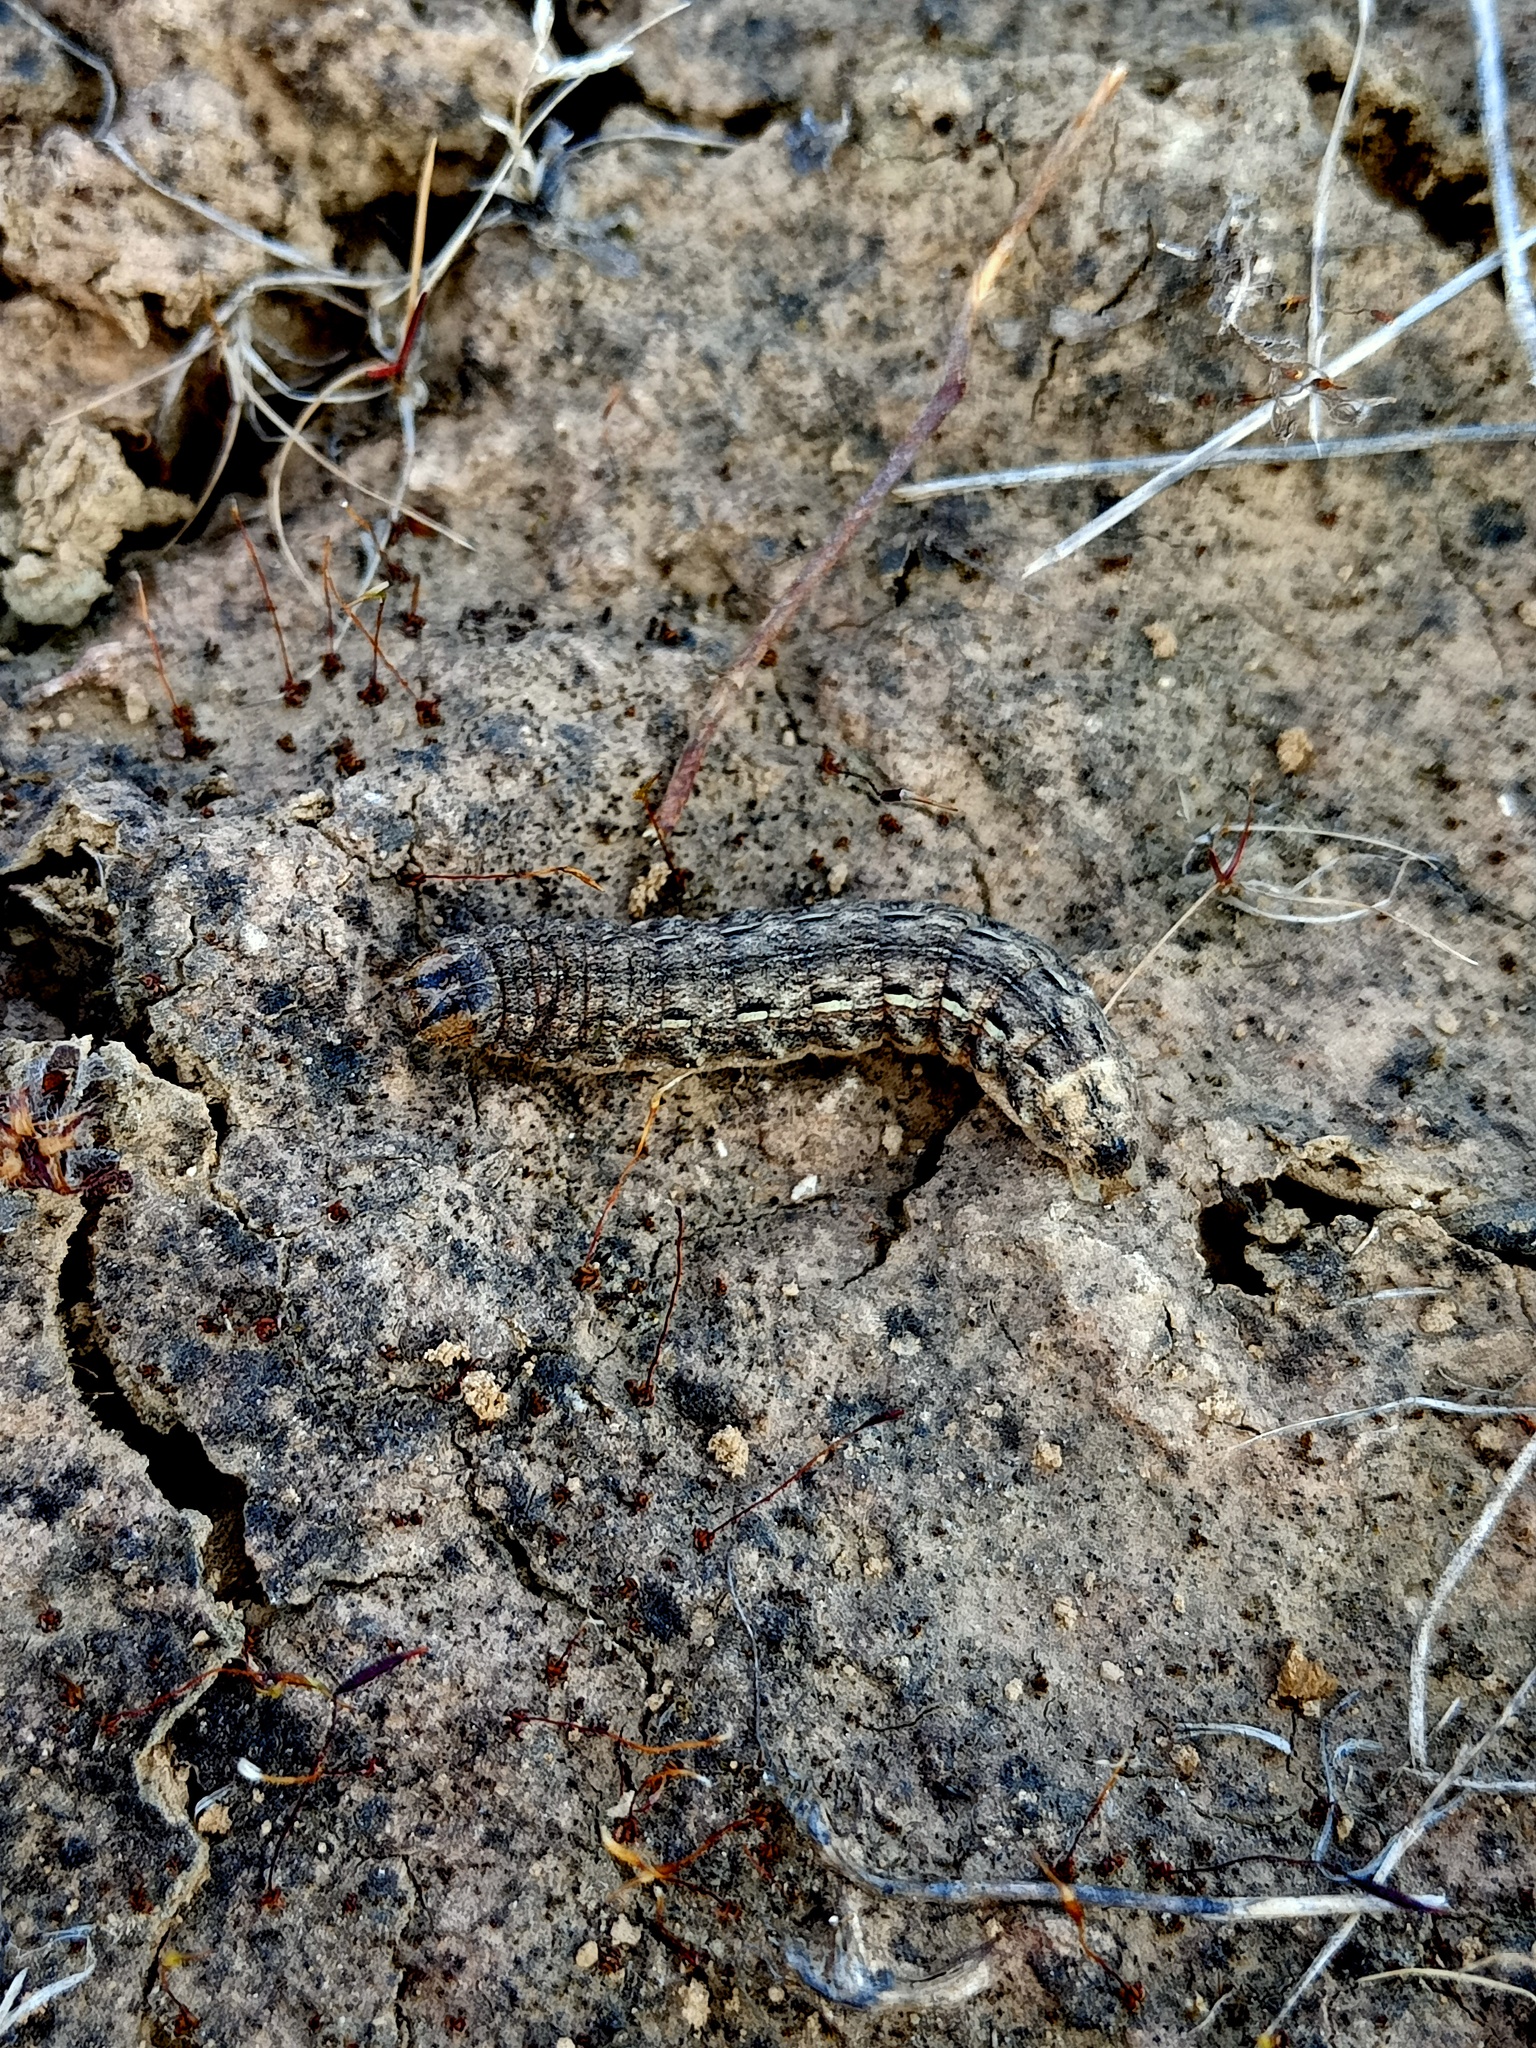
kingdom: Animalia
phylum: Arthropoda
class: Insecta
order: Lepidoptera
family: Noctuidae
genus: Noctua
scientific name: Noctua pronuba
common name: Large yellow underwing
